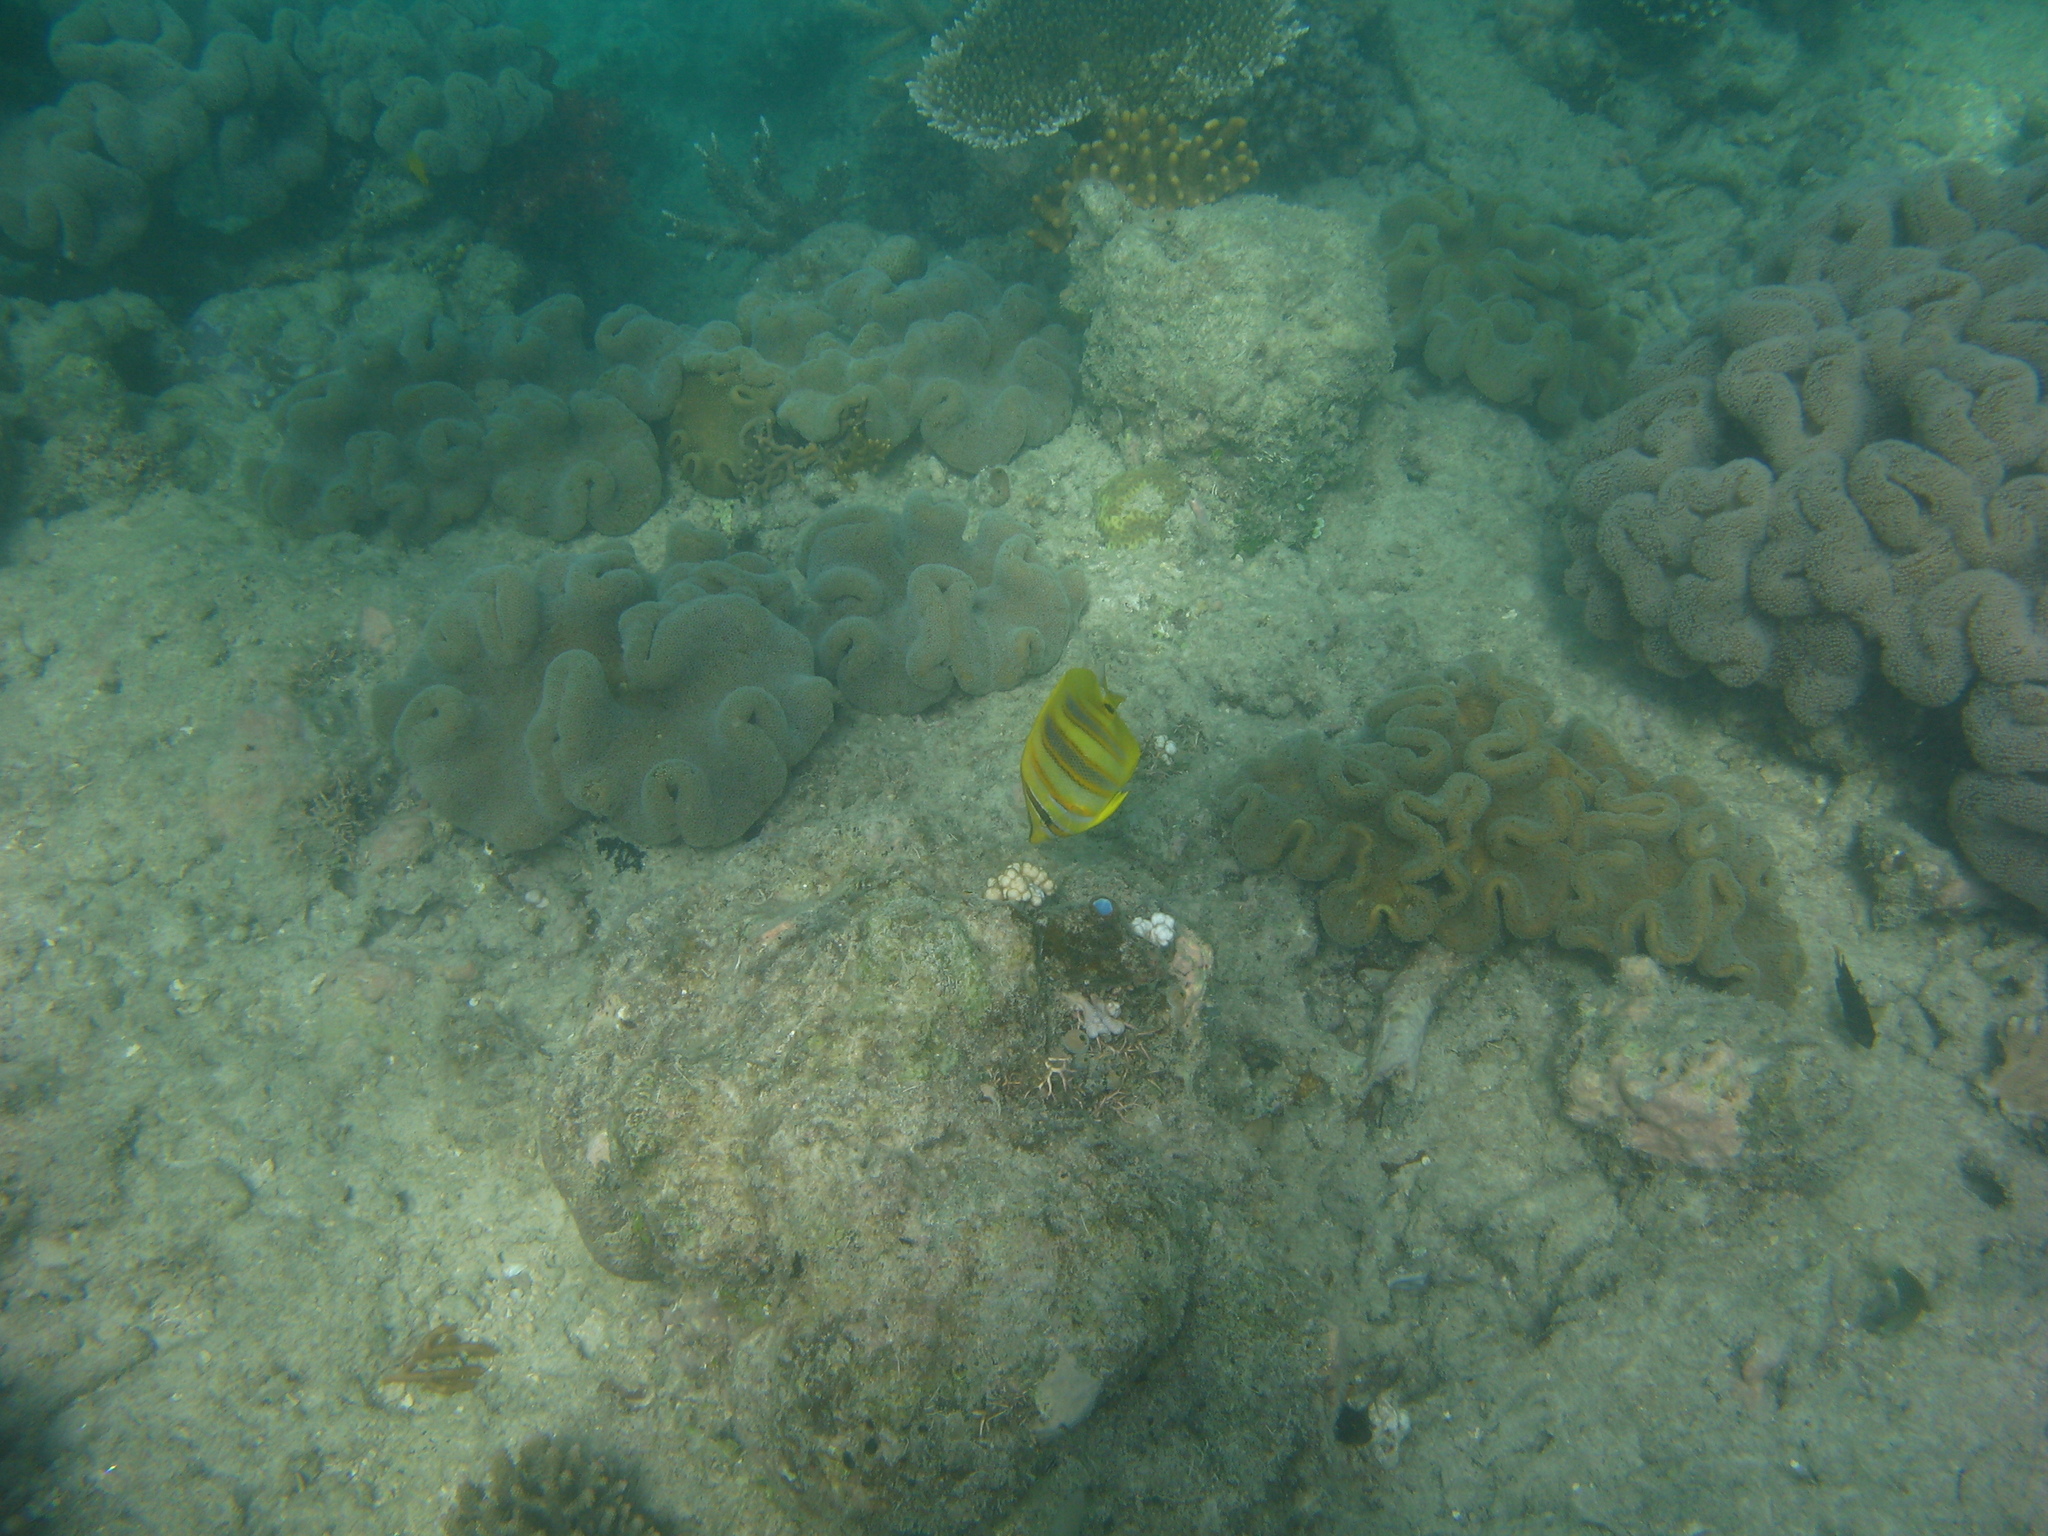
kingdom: Animalia
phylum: Chordata
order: Perciformes
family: Chaetodontidae
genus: Chaetodon
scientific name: Chaetodon rainfordi
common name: Rainford's butterflyfish
